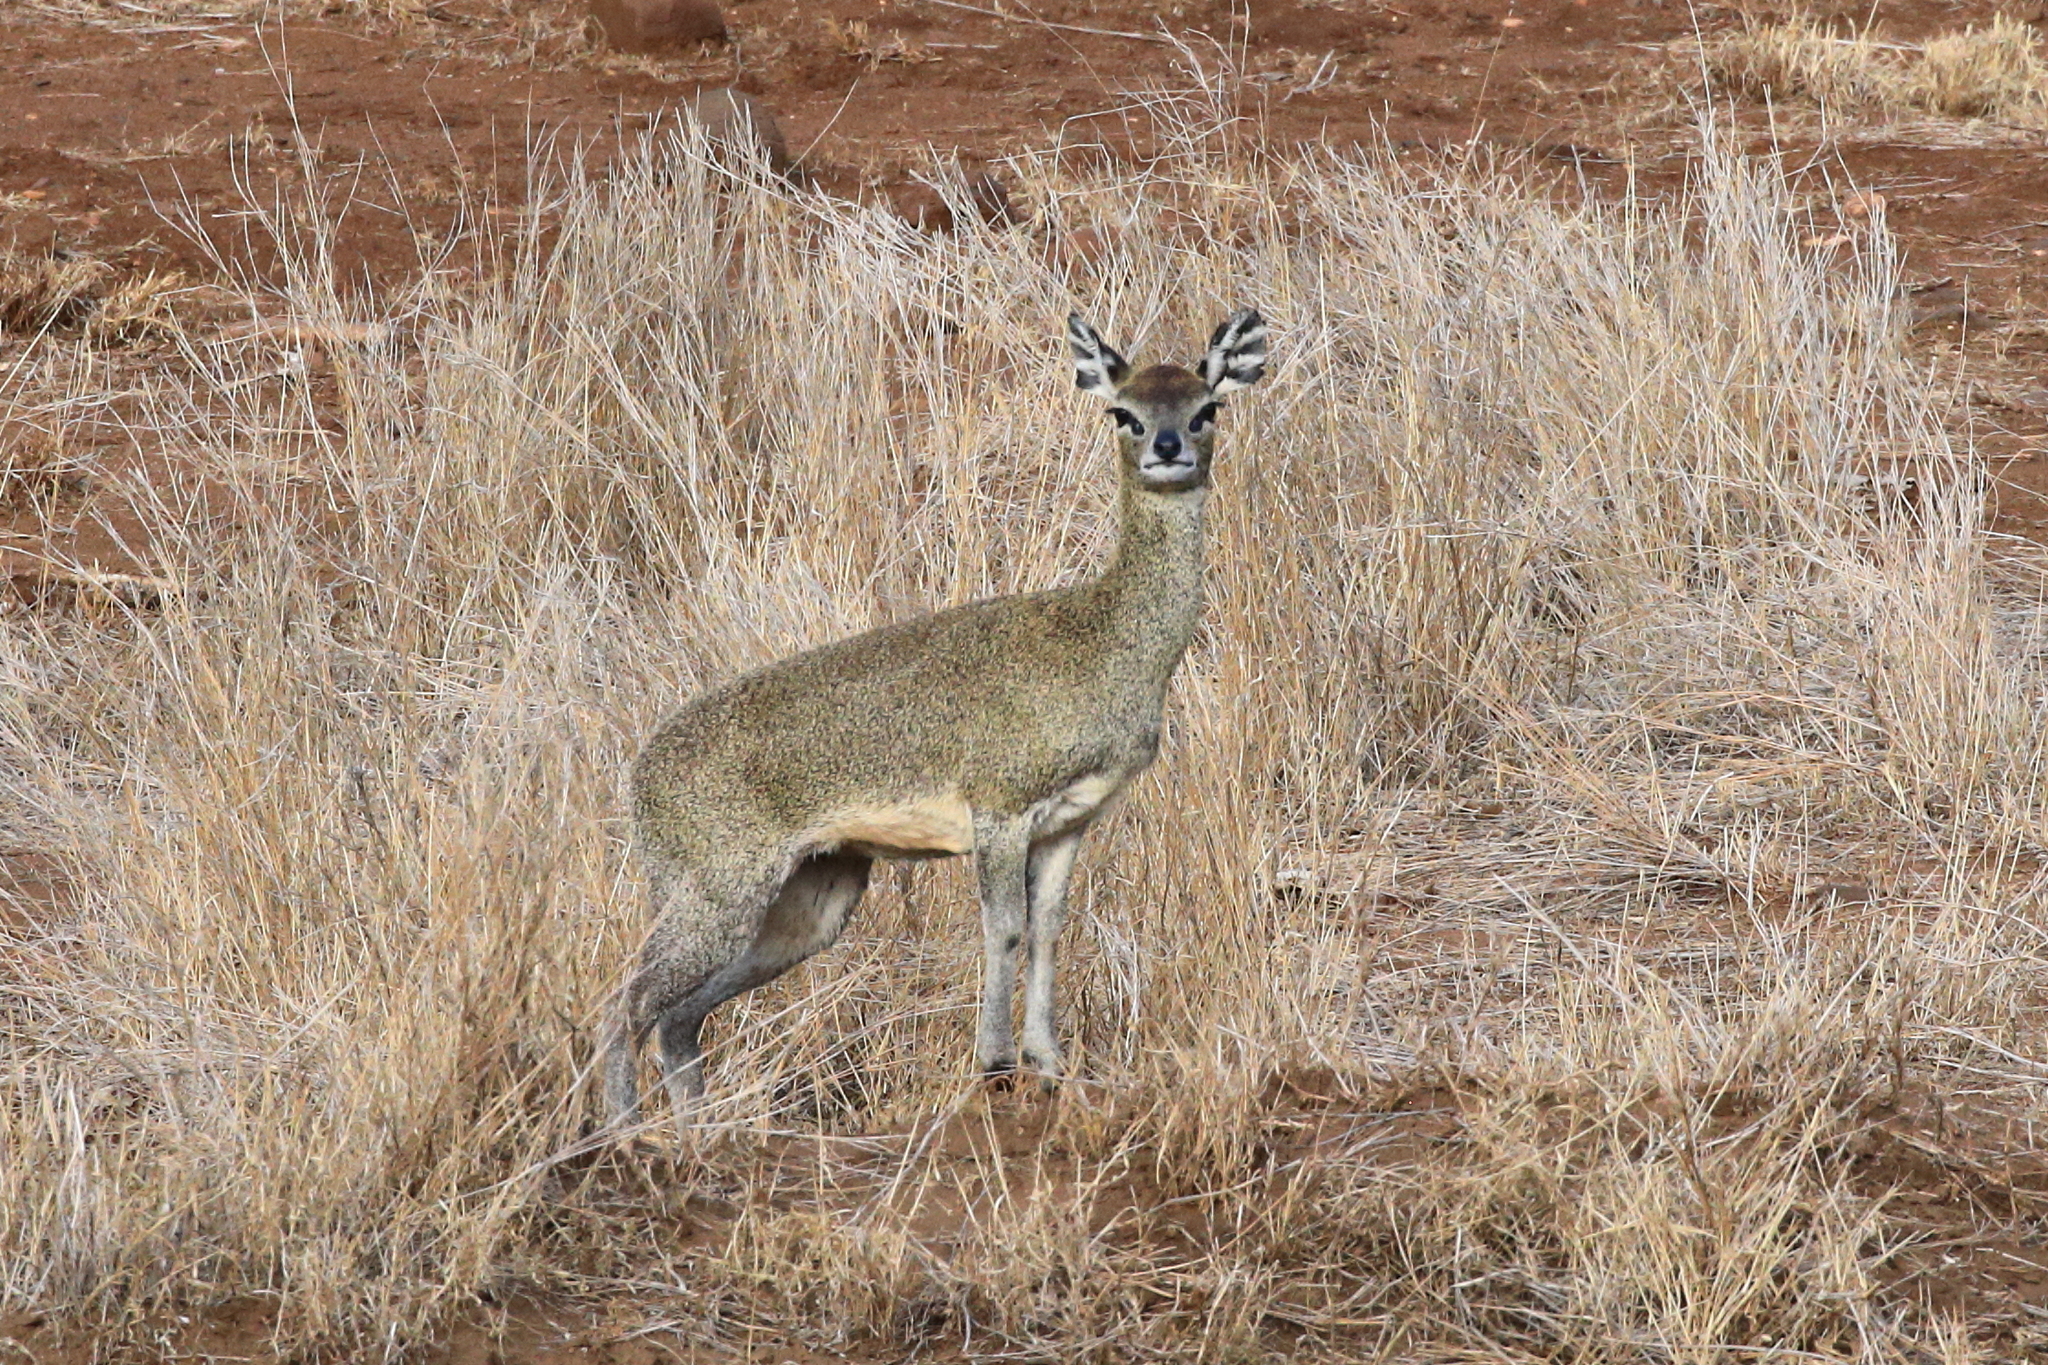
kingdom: Animalia
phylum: Chordata
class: Mammalia
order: Artiodactyla
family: Bovidae
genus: Oreotragus
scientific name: Oreotragus oreotragus
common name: Klipspringer
